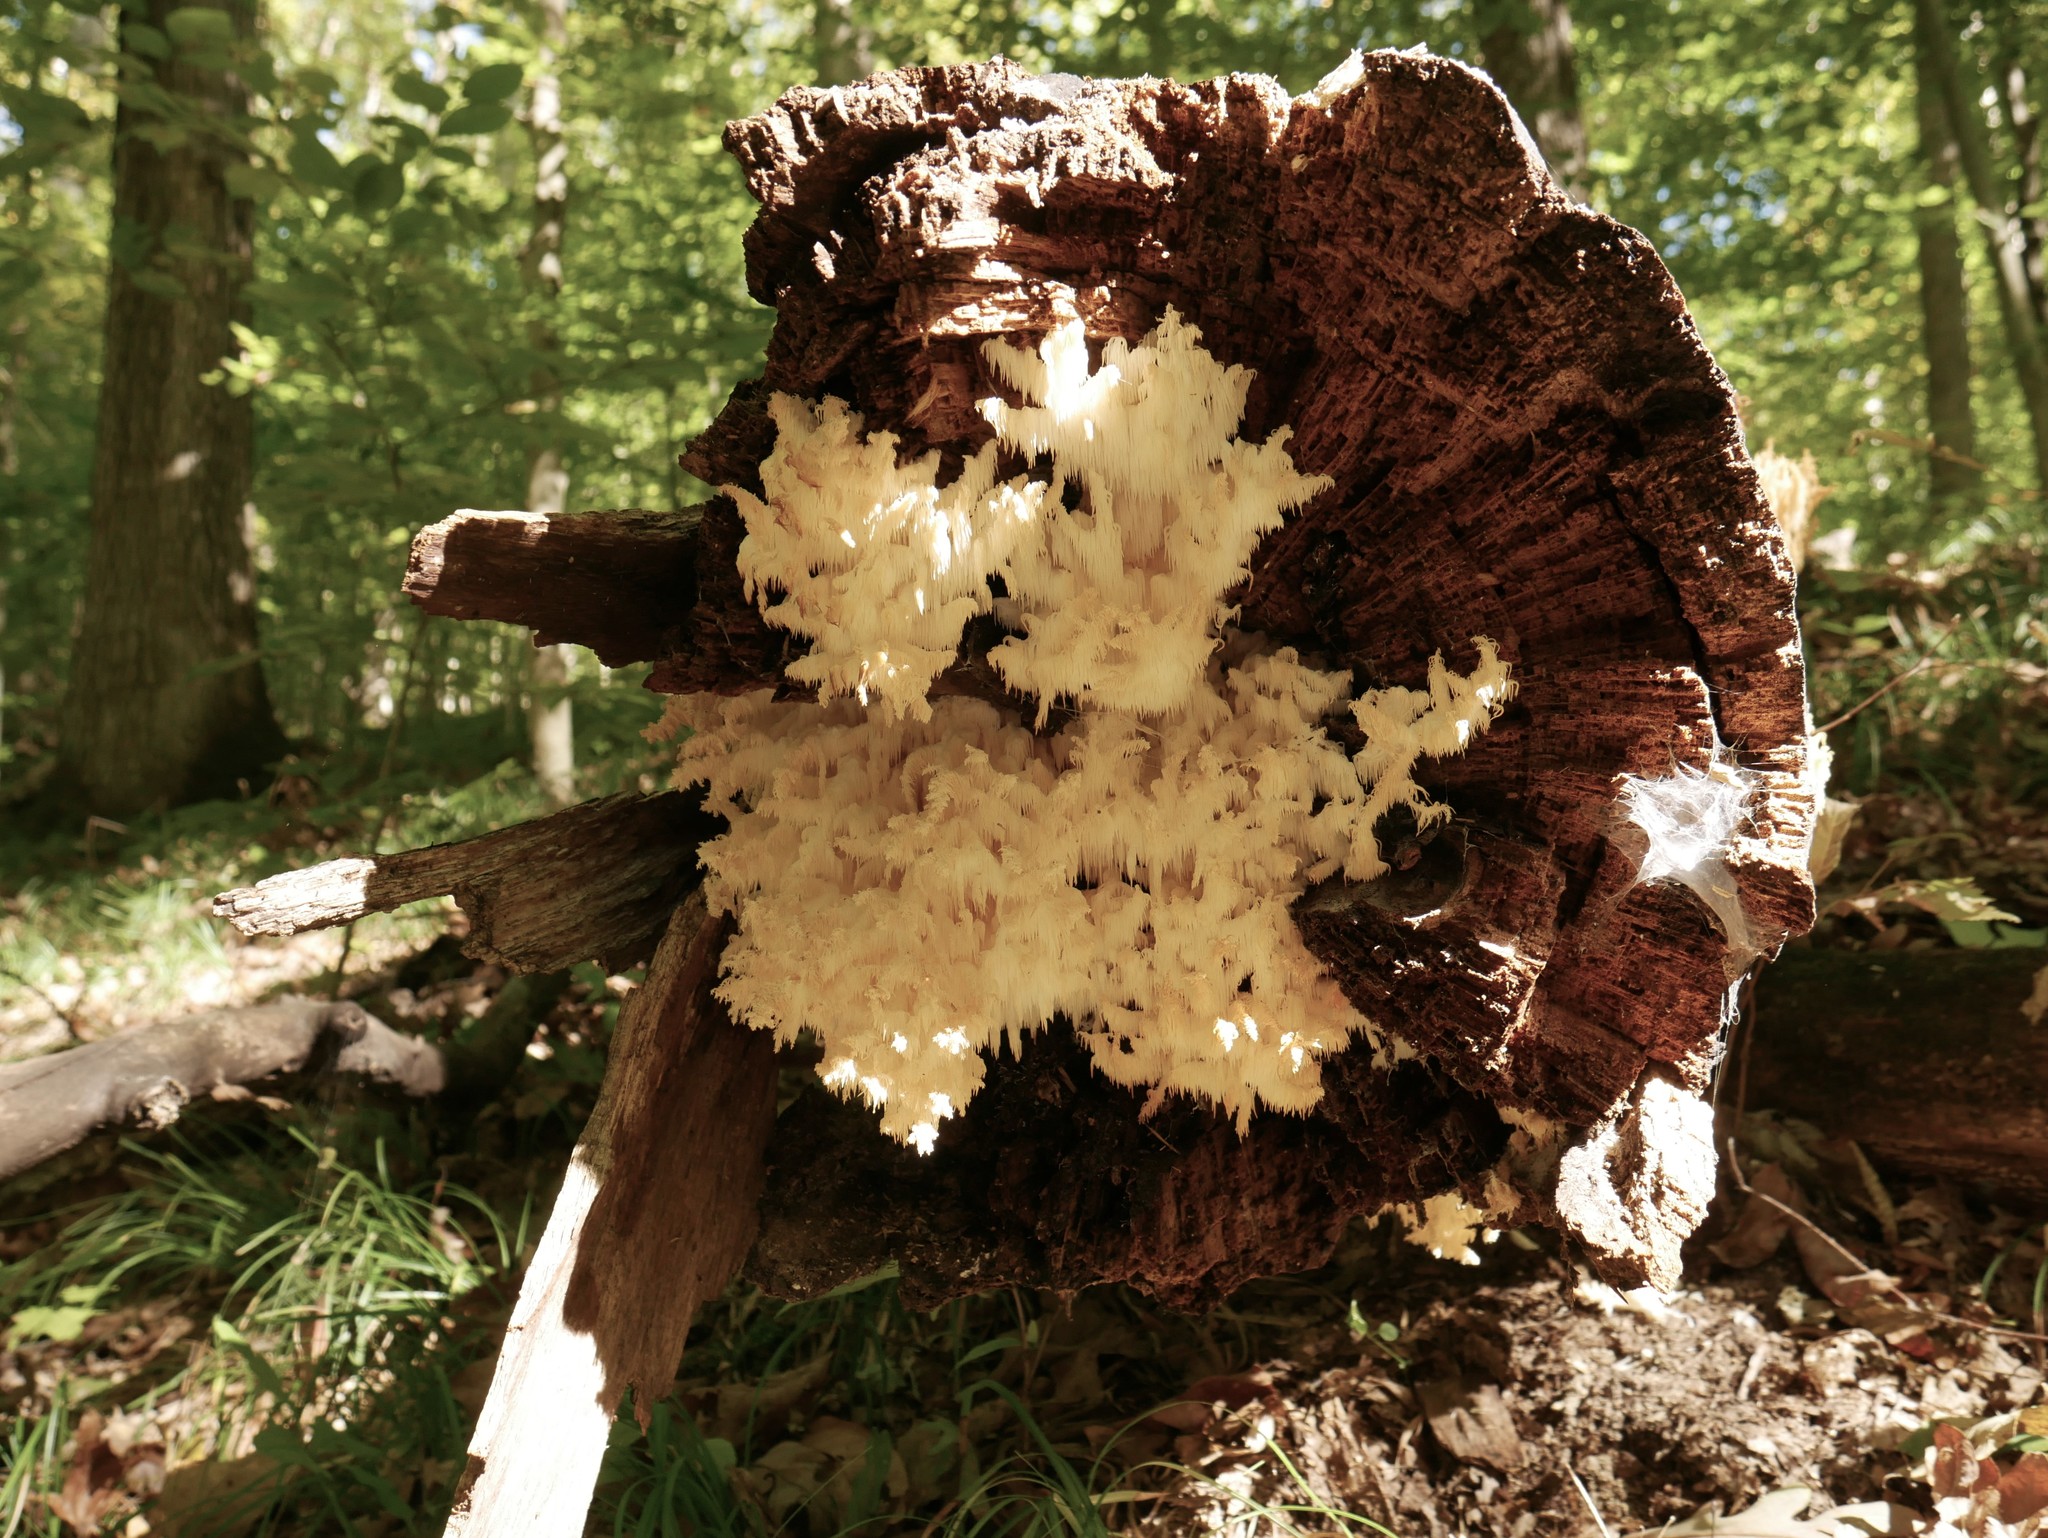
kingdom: Fungi
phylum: Basidiomycota
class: Agaricomycetes
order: Russulales
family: Hericiaceae
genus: Hericium
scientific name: Hericium coralloides
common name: Coral tooth
